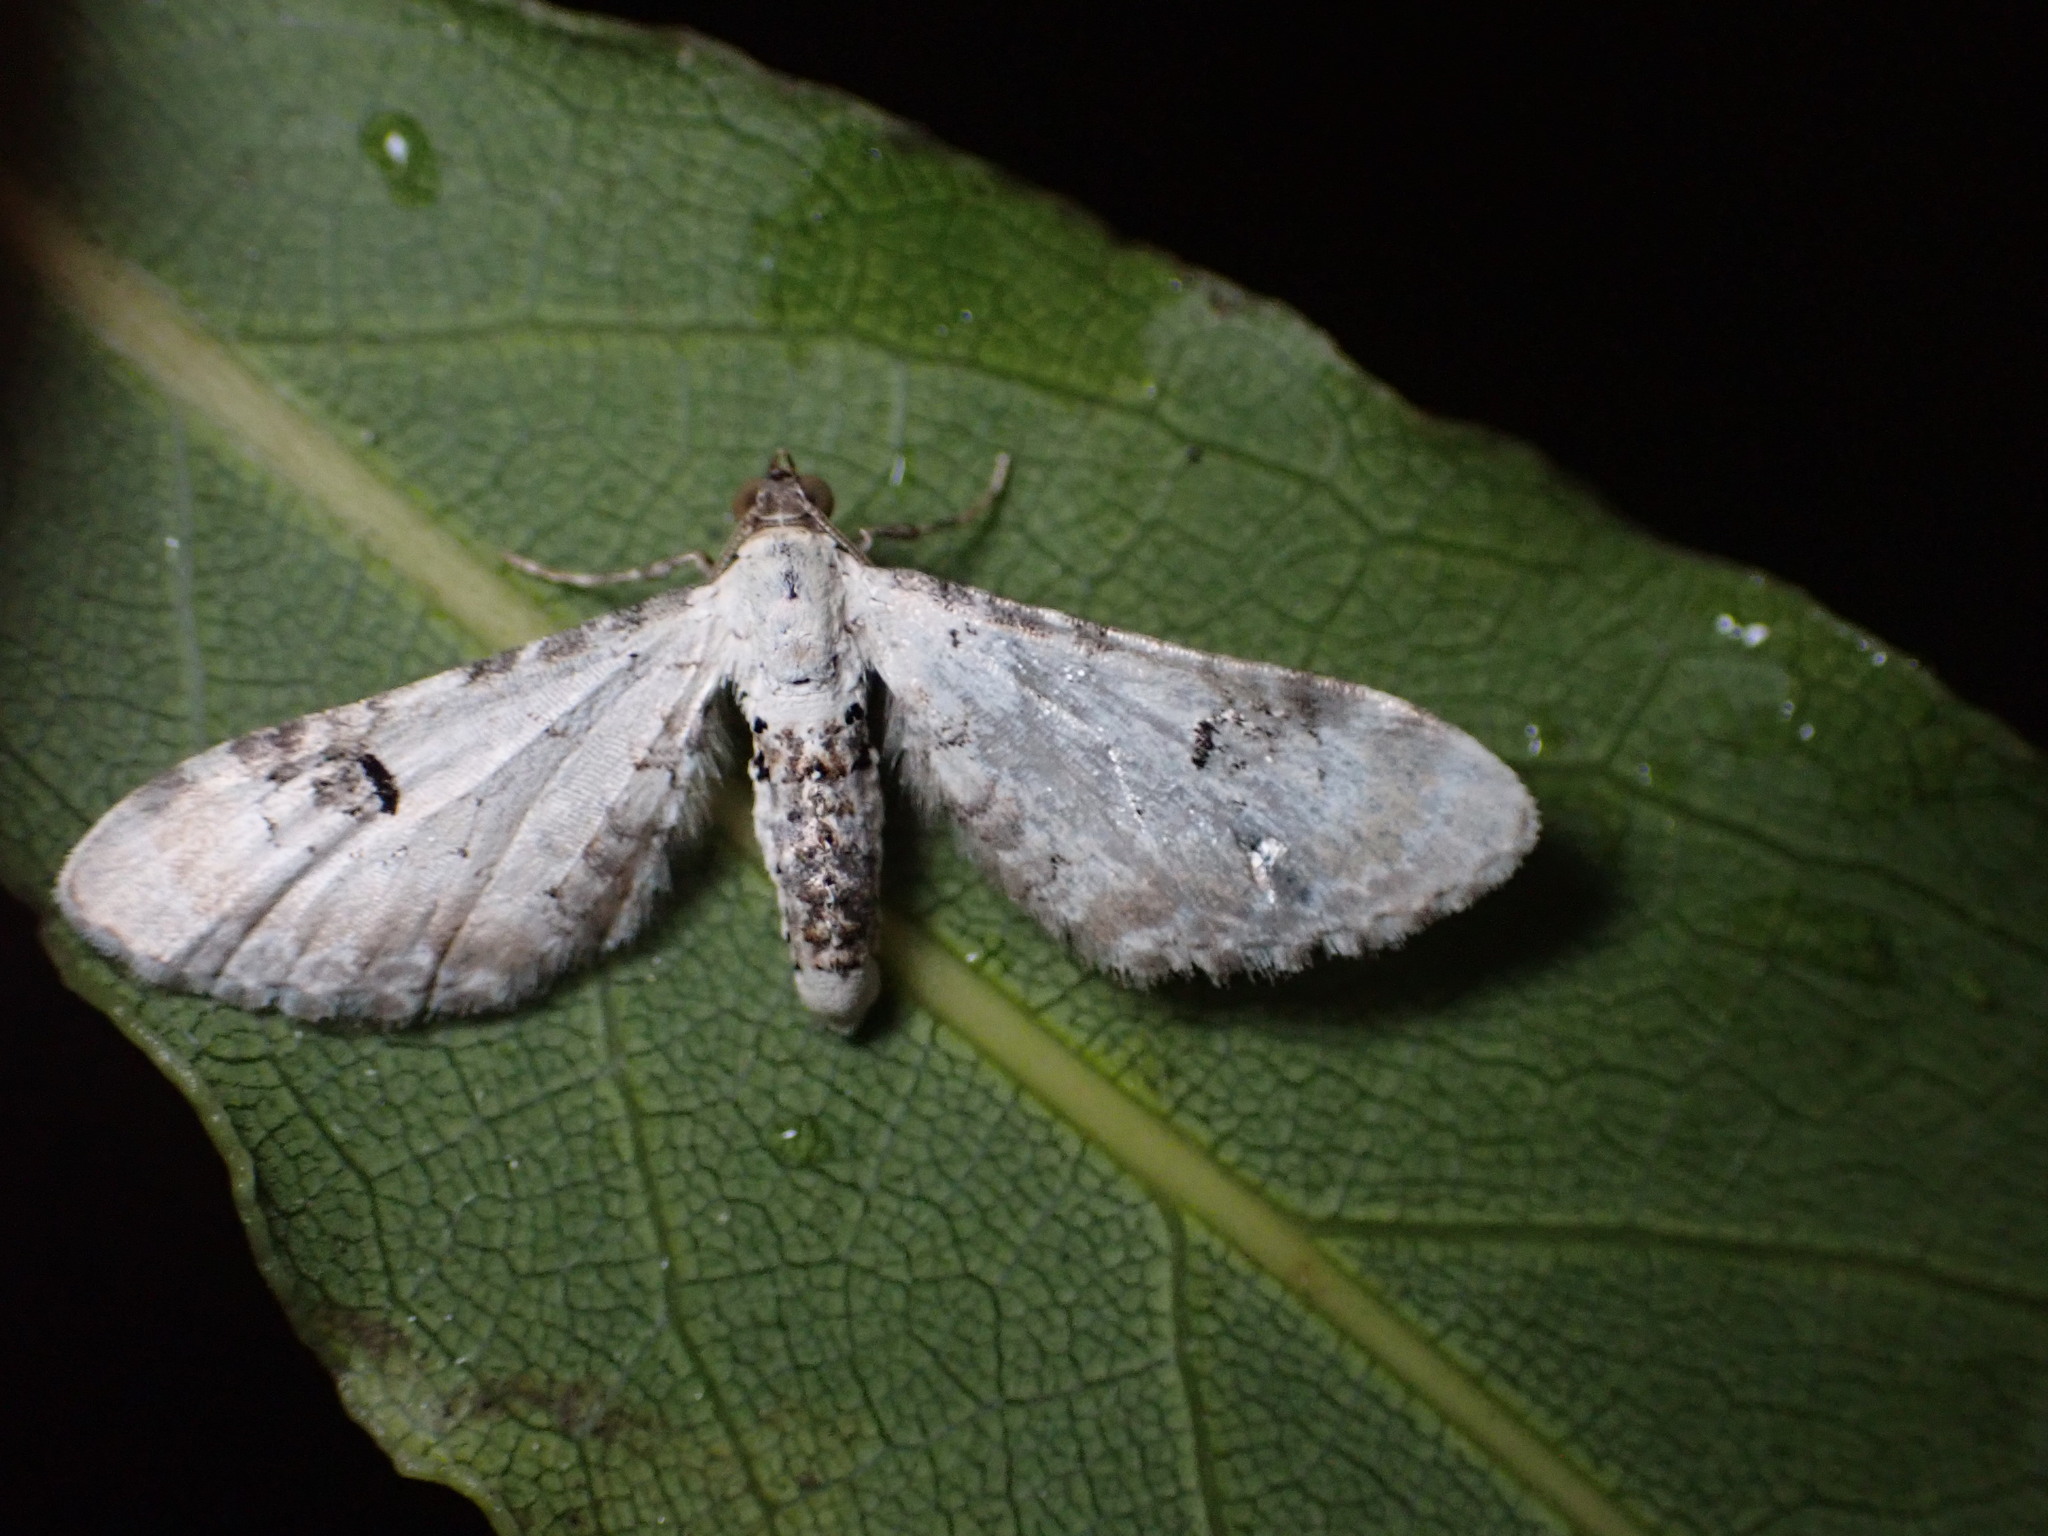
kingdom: Animalia
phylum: Arthropoda
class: Insecta
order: Lepidoptera
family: Geometridae
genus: Eupithecia
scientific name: Eupithecia centaureata
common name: Lime-speck pug
